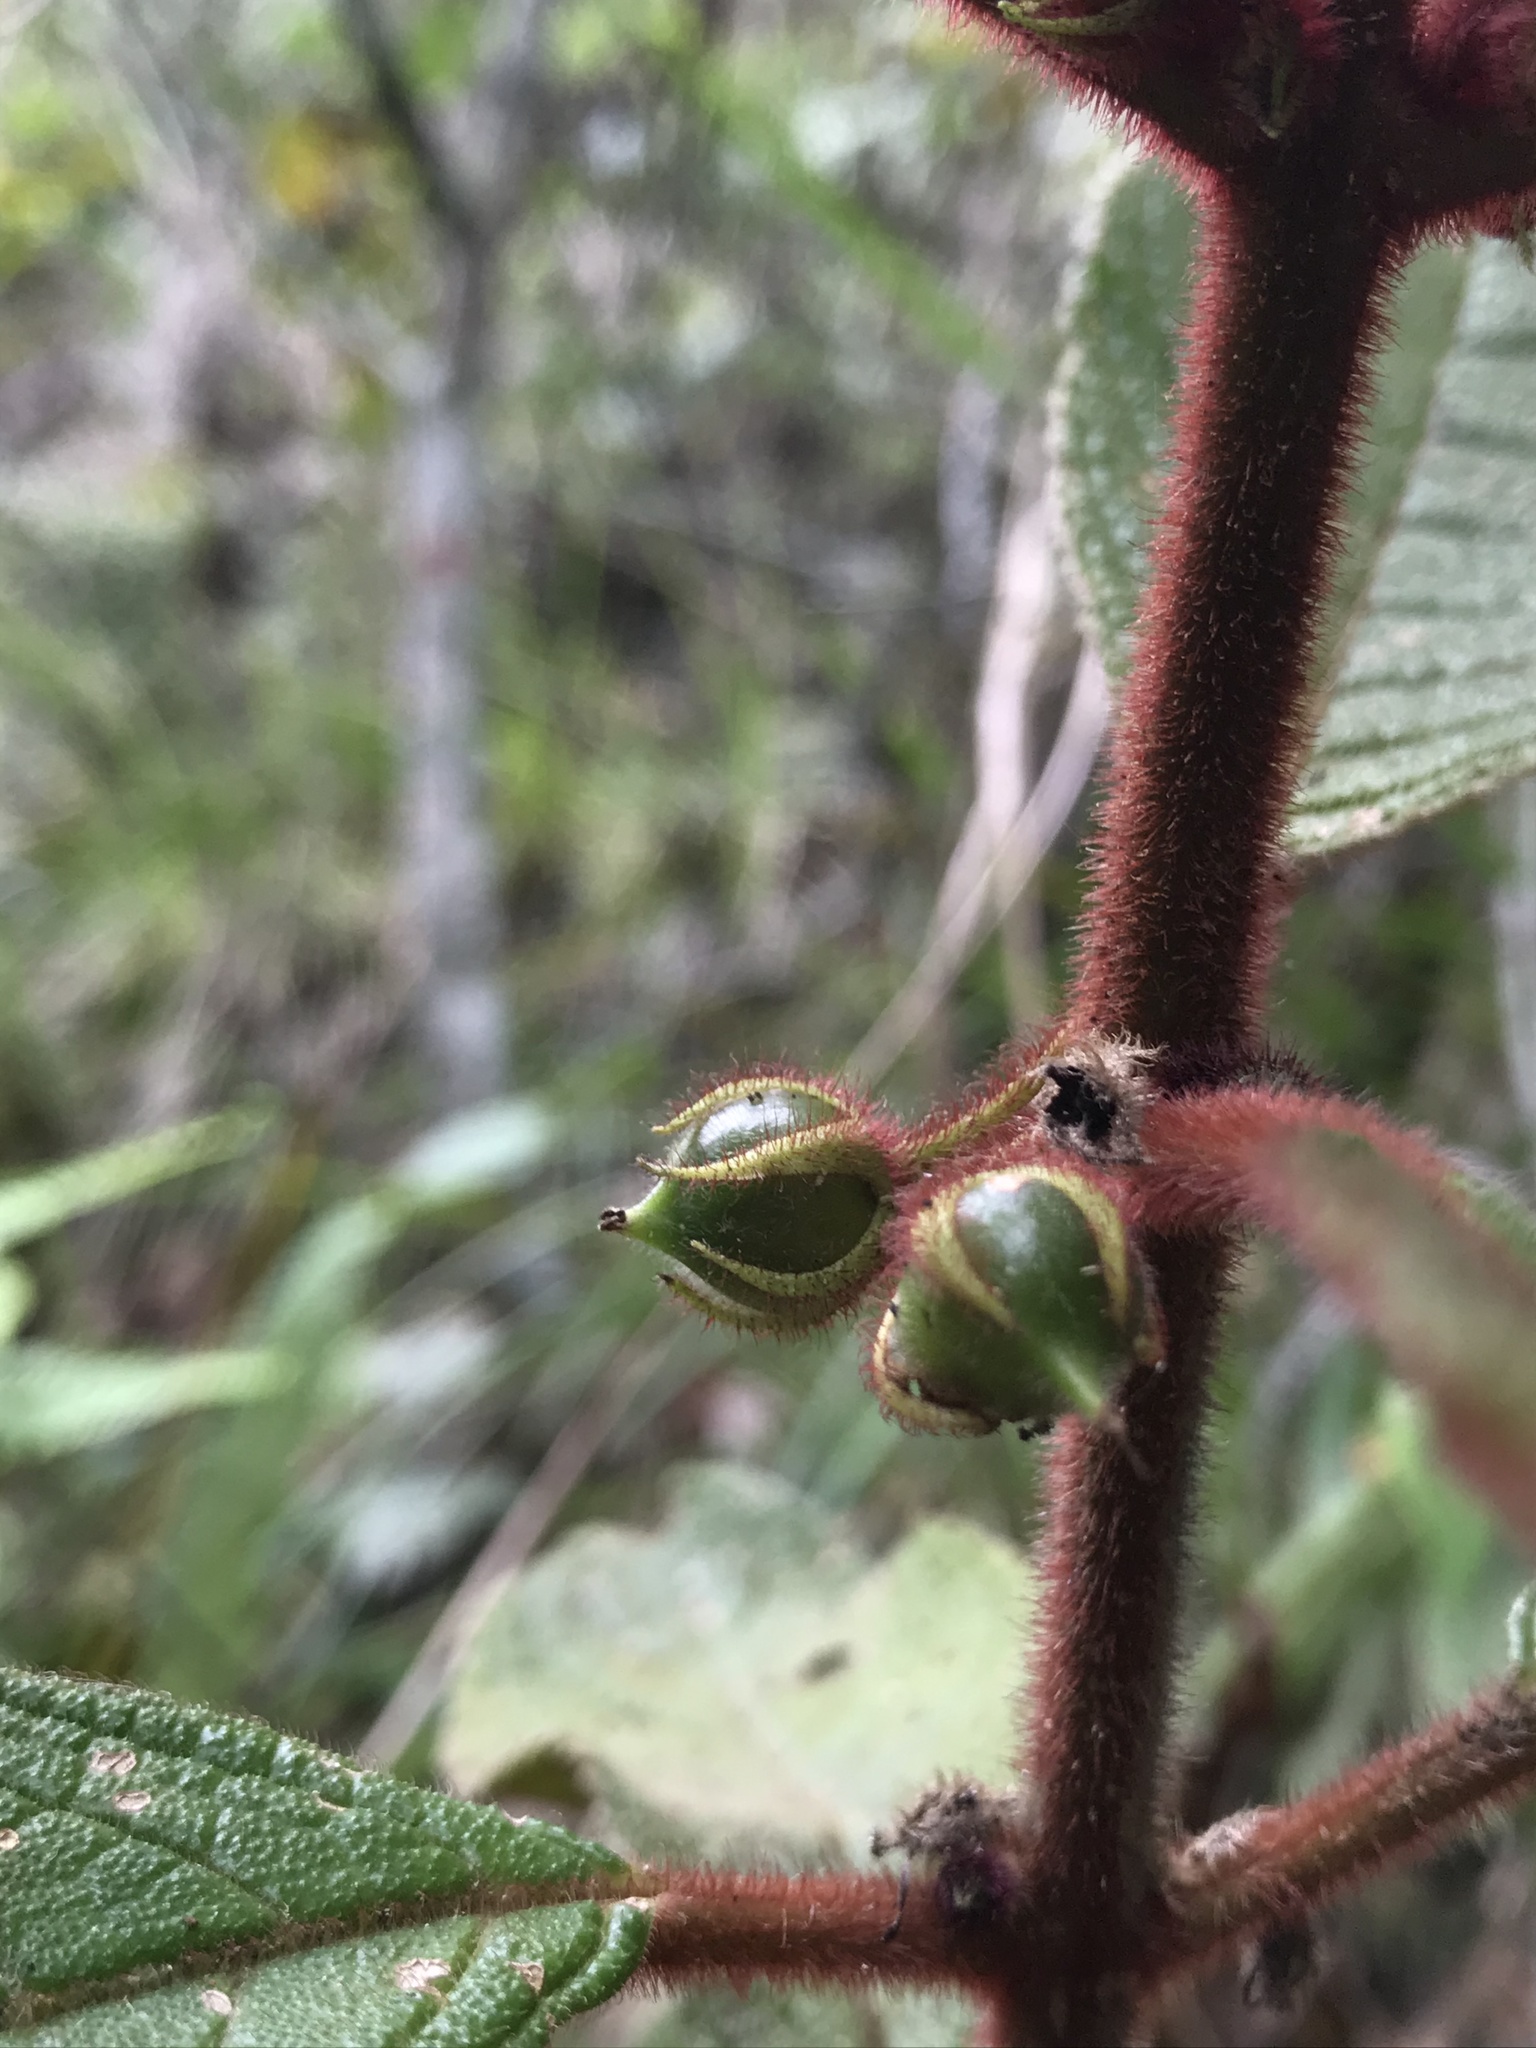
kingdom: Plantae
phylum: Tracheophyta
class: Magnoliopsida
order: Lamiales
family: Gesneriaceae
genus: Besleria
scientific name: Besleria tuberculata
